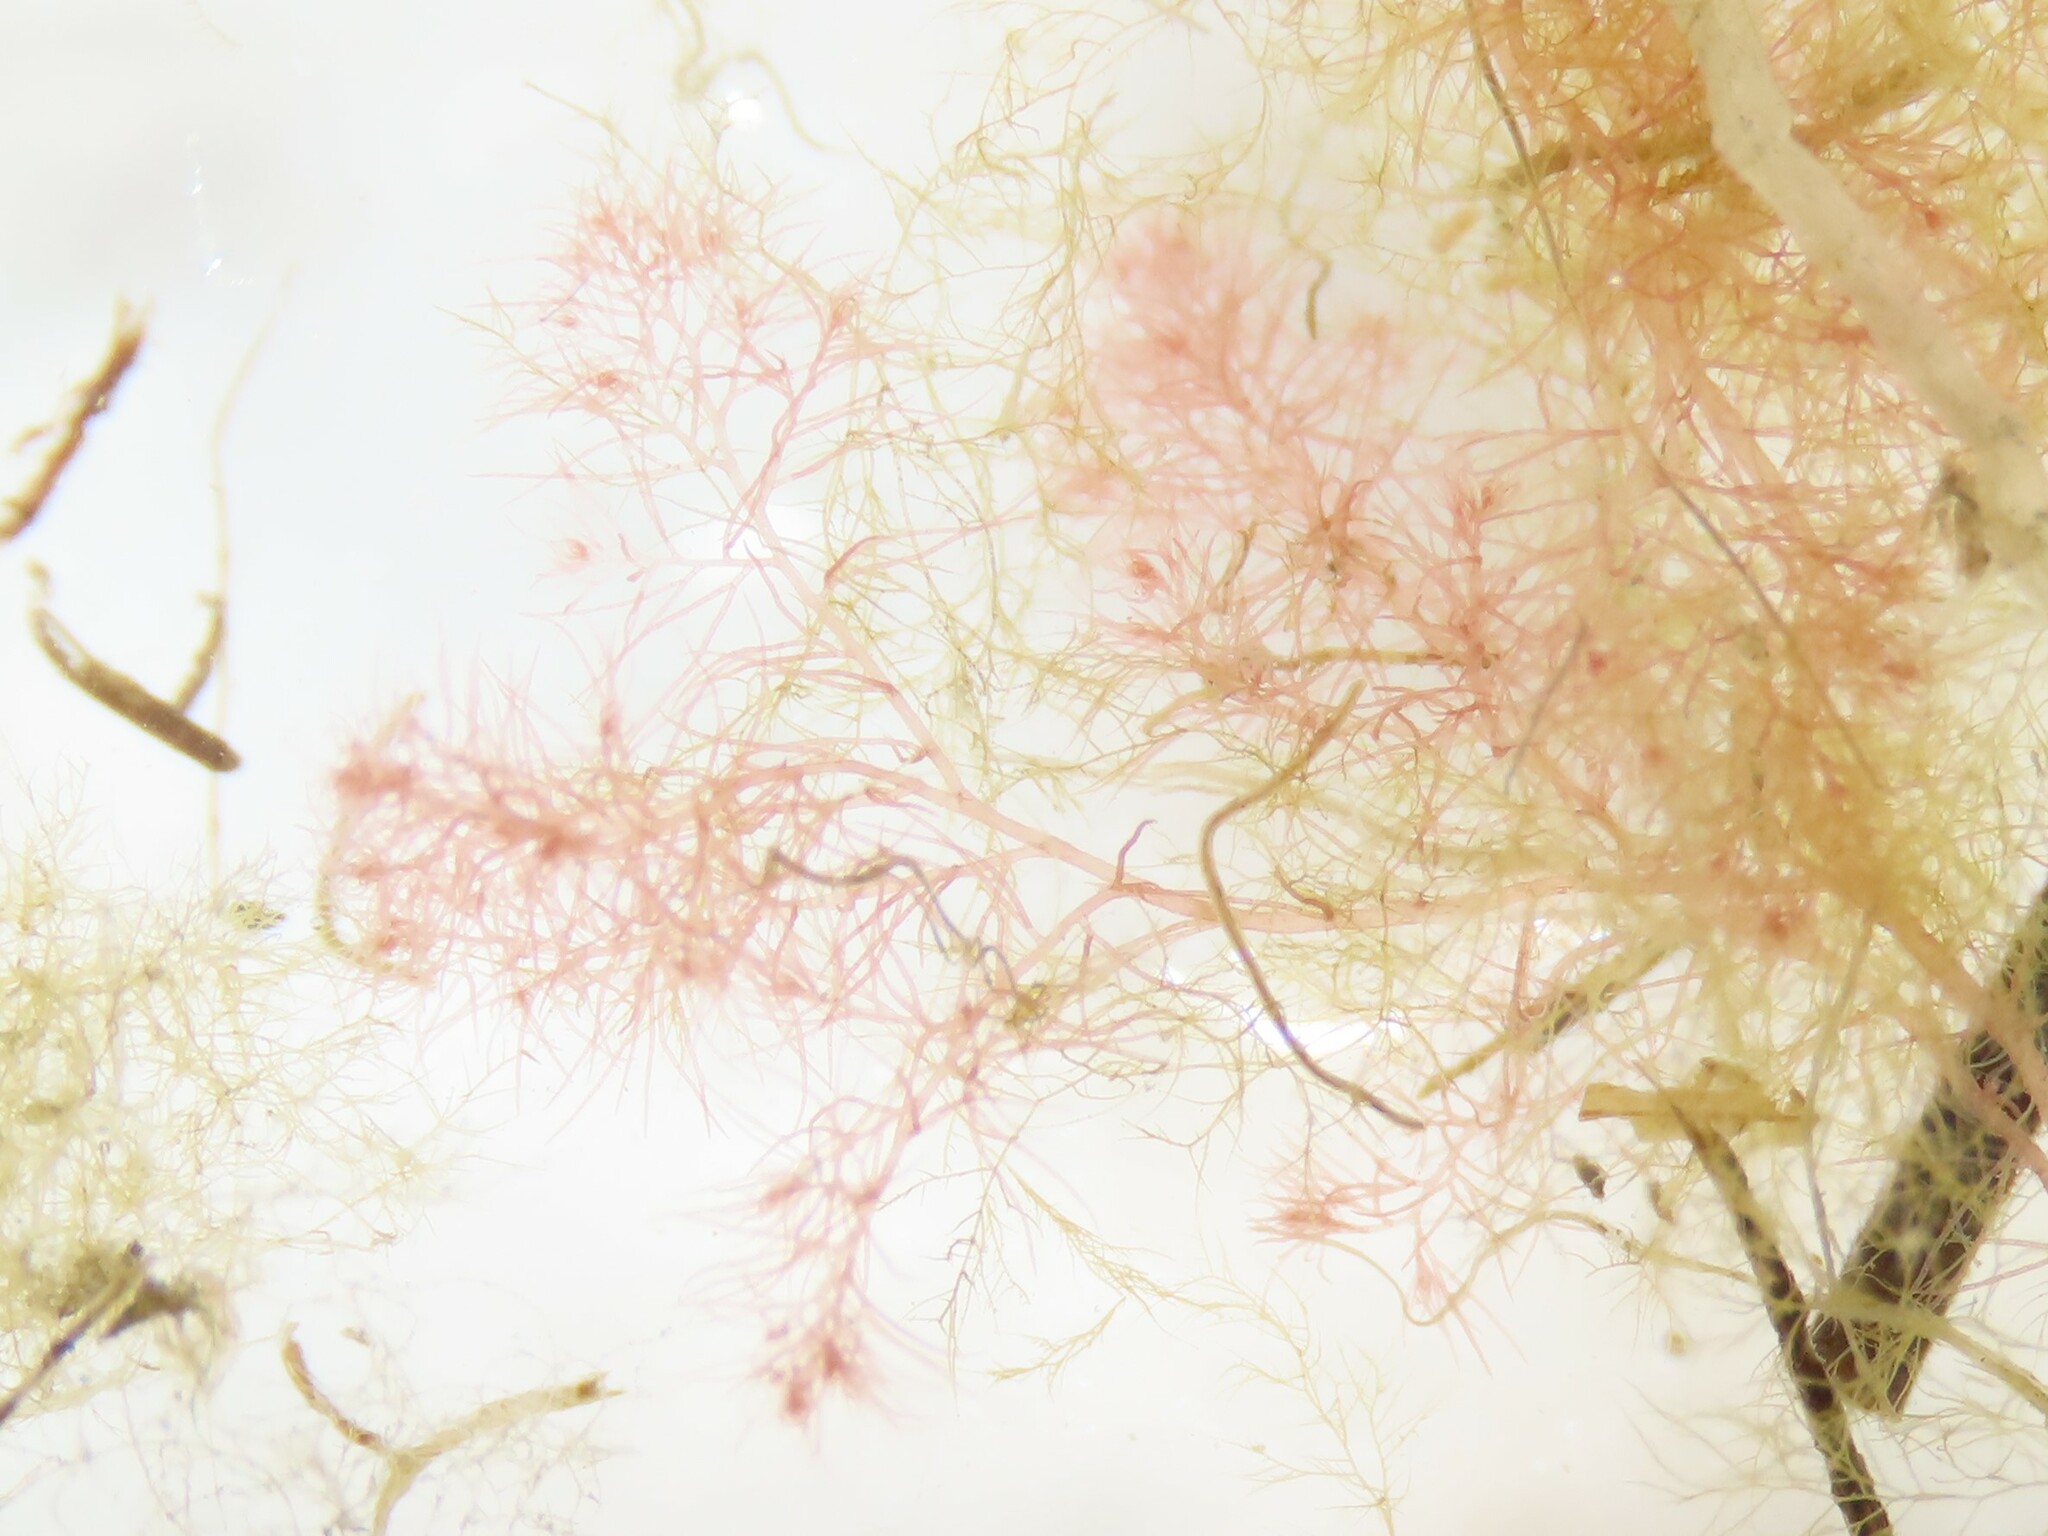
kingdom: Plantae
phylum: Rhodophyta
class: Florideophyceae
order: Ceramiales
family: Dasyaceae
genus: Dasysiphonia
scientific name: Dasysiphonia japonica
